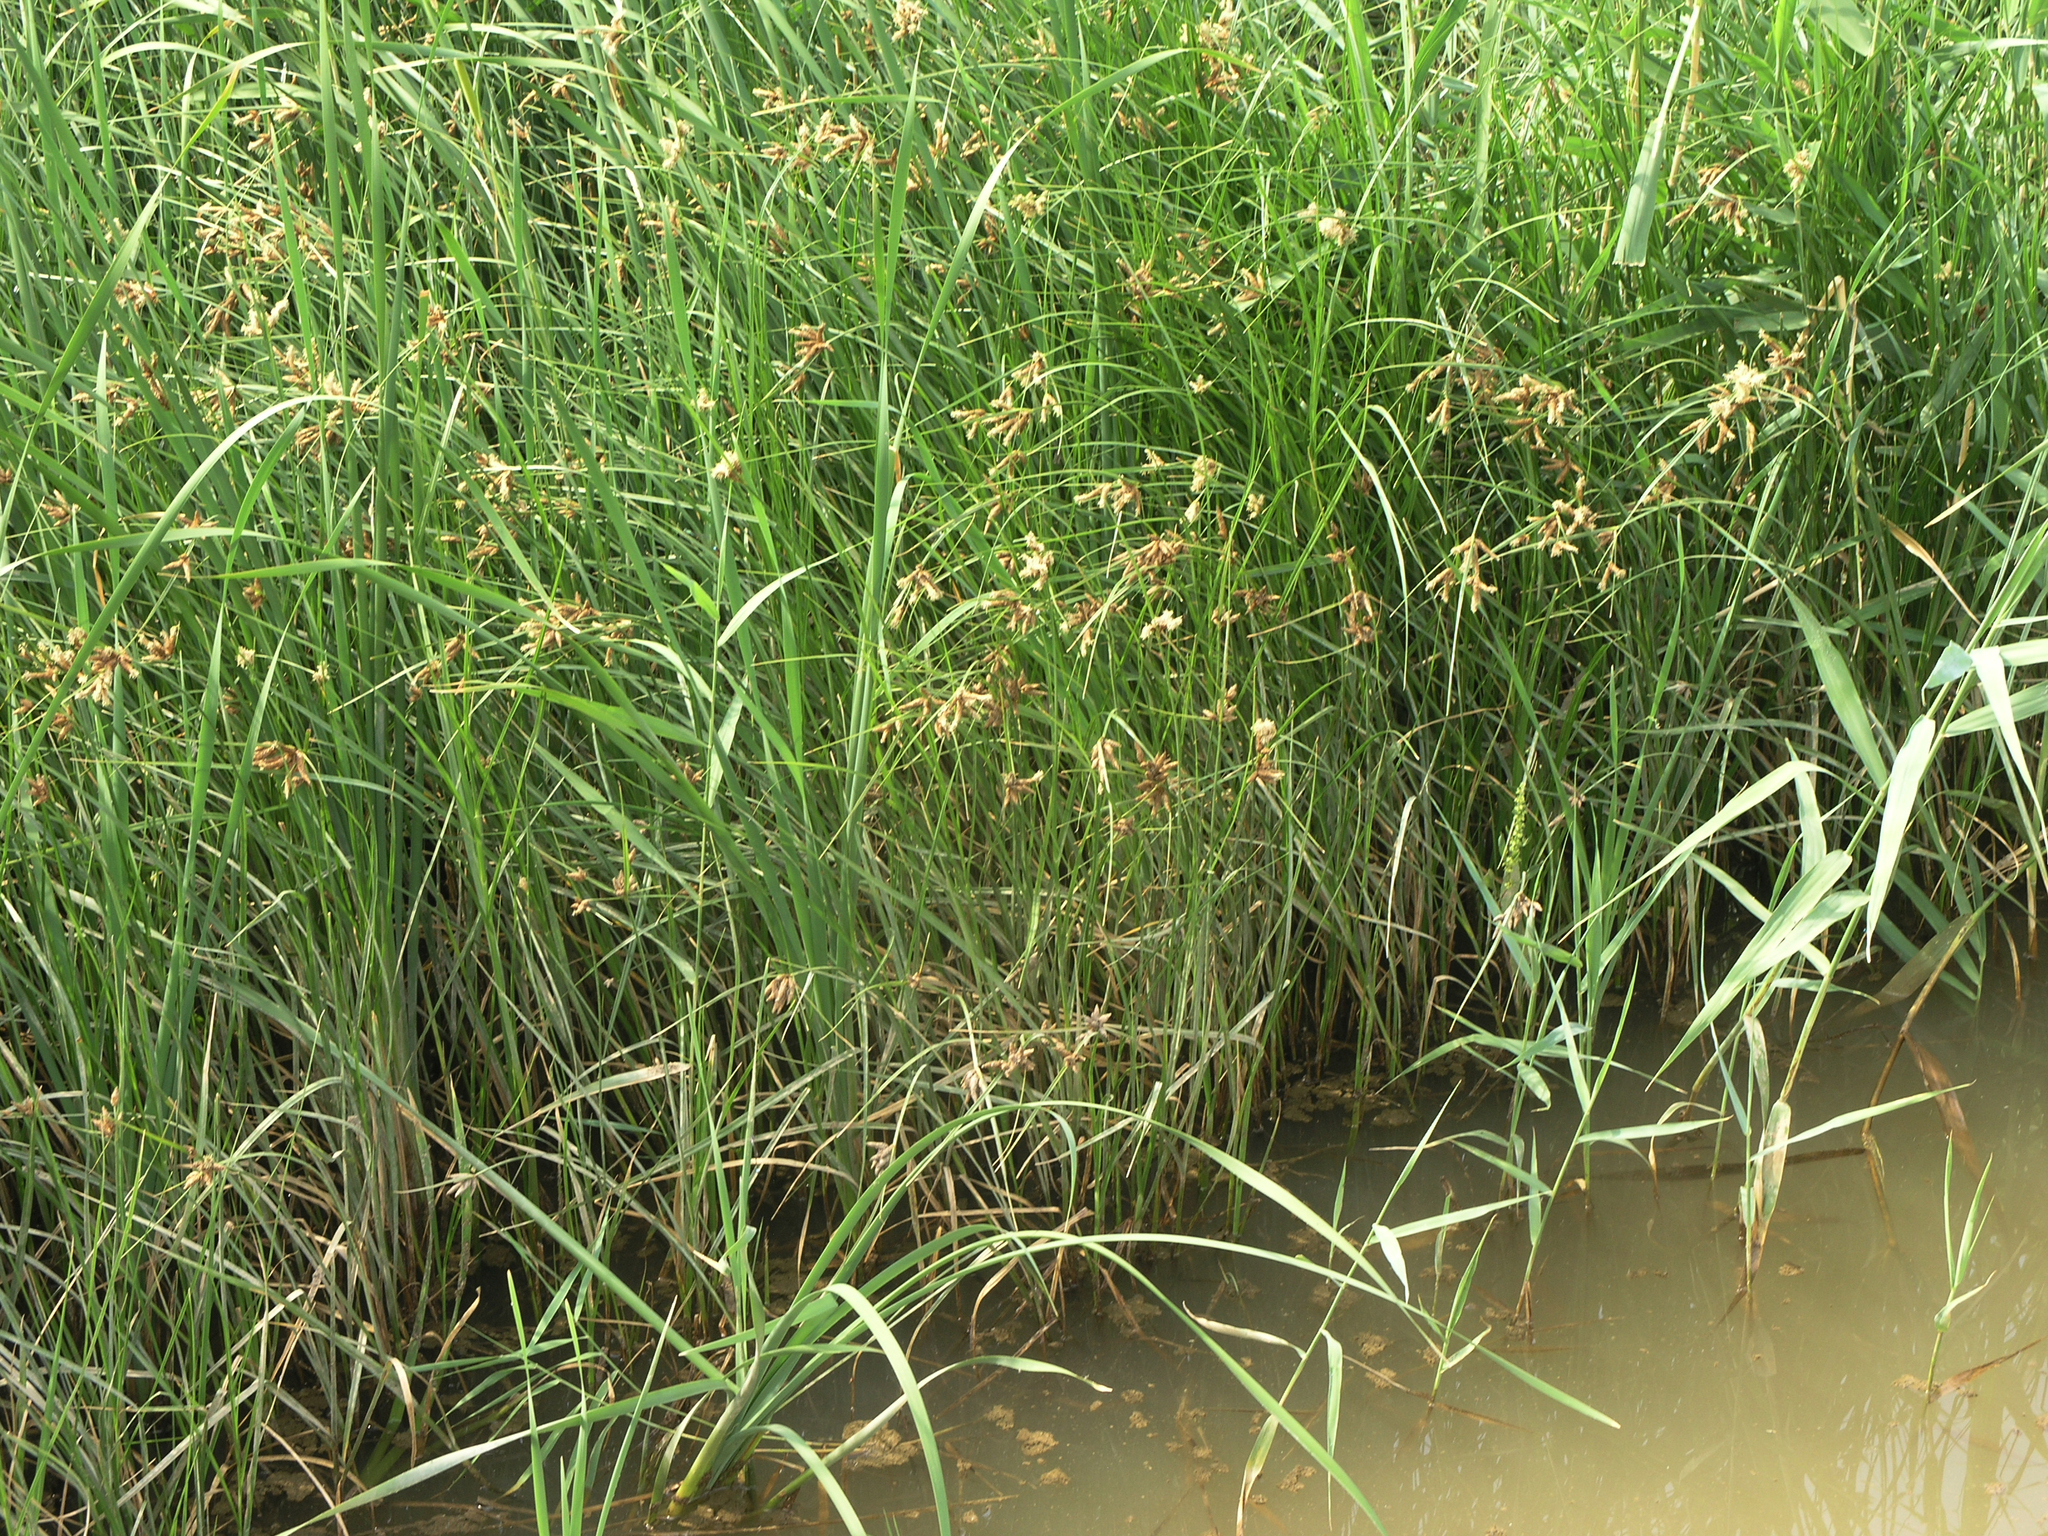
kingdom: Plantae
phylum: Tracheophyta
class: Liliopsida
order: Poales
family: Cyperaceae
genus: Bolboschoenus
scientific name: Bolboschoenus maritimus
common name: Sea club-rush
